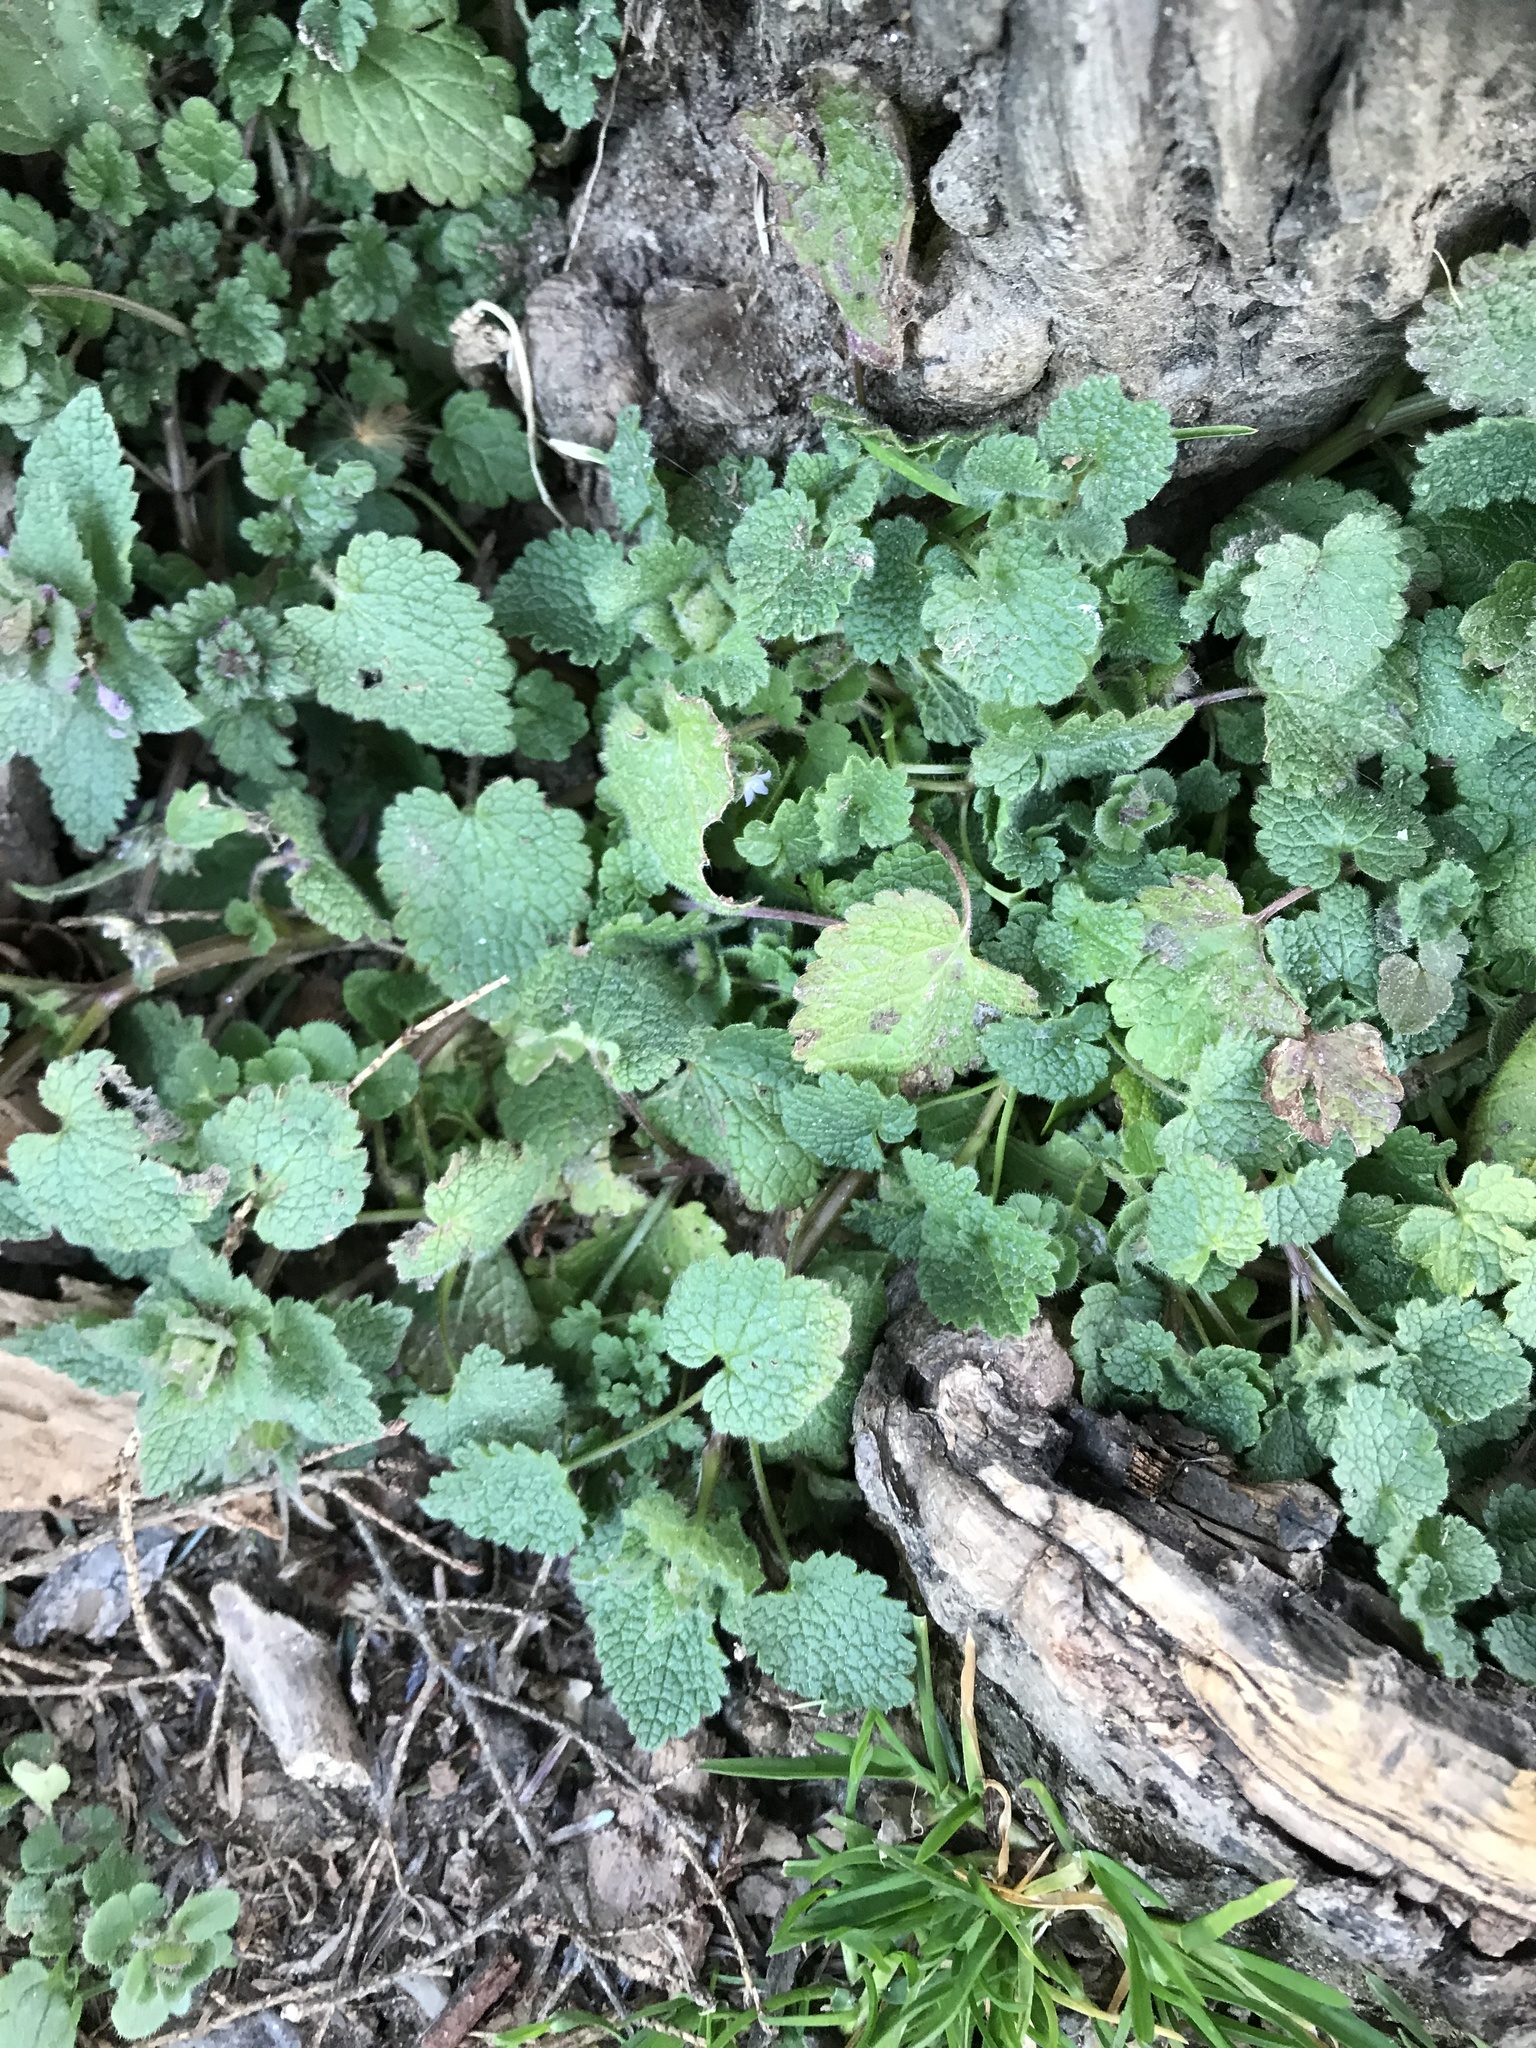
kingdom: Plantae
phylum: Tracheophyta
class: Magnoliopsida
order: Lamiales
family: Lamiaceae
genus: Lamium
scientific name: Lamium purpureum
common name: Red dead-nettle
